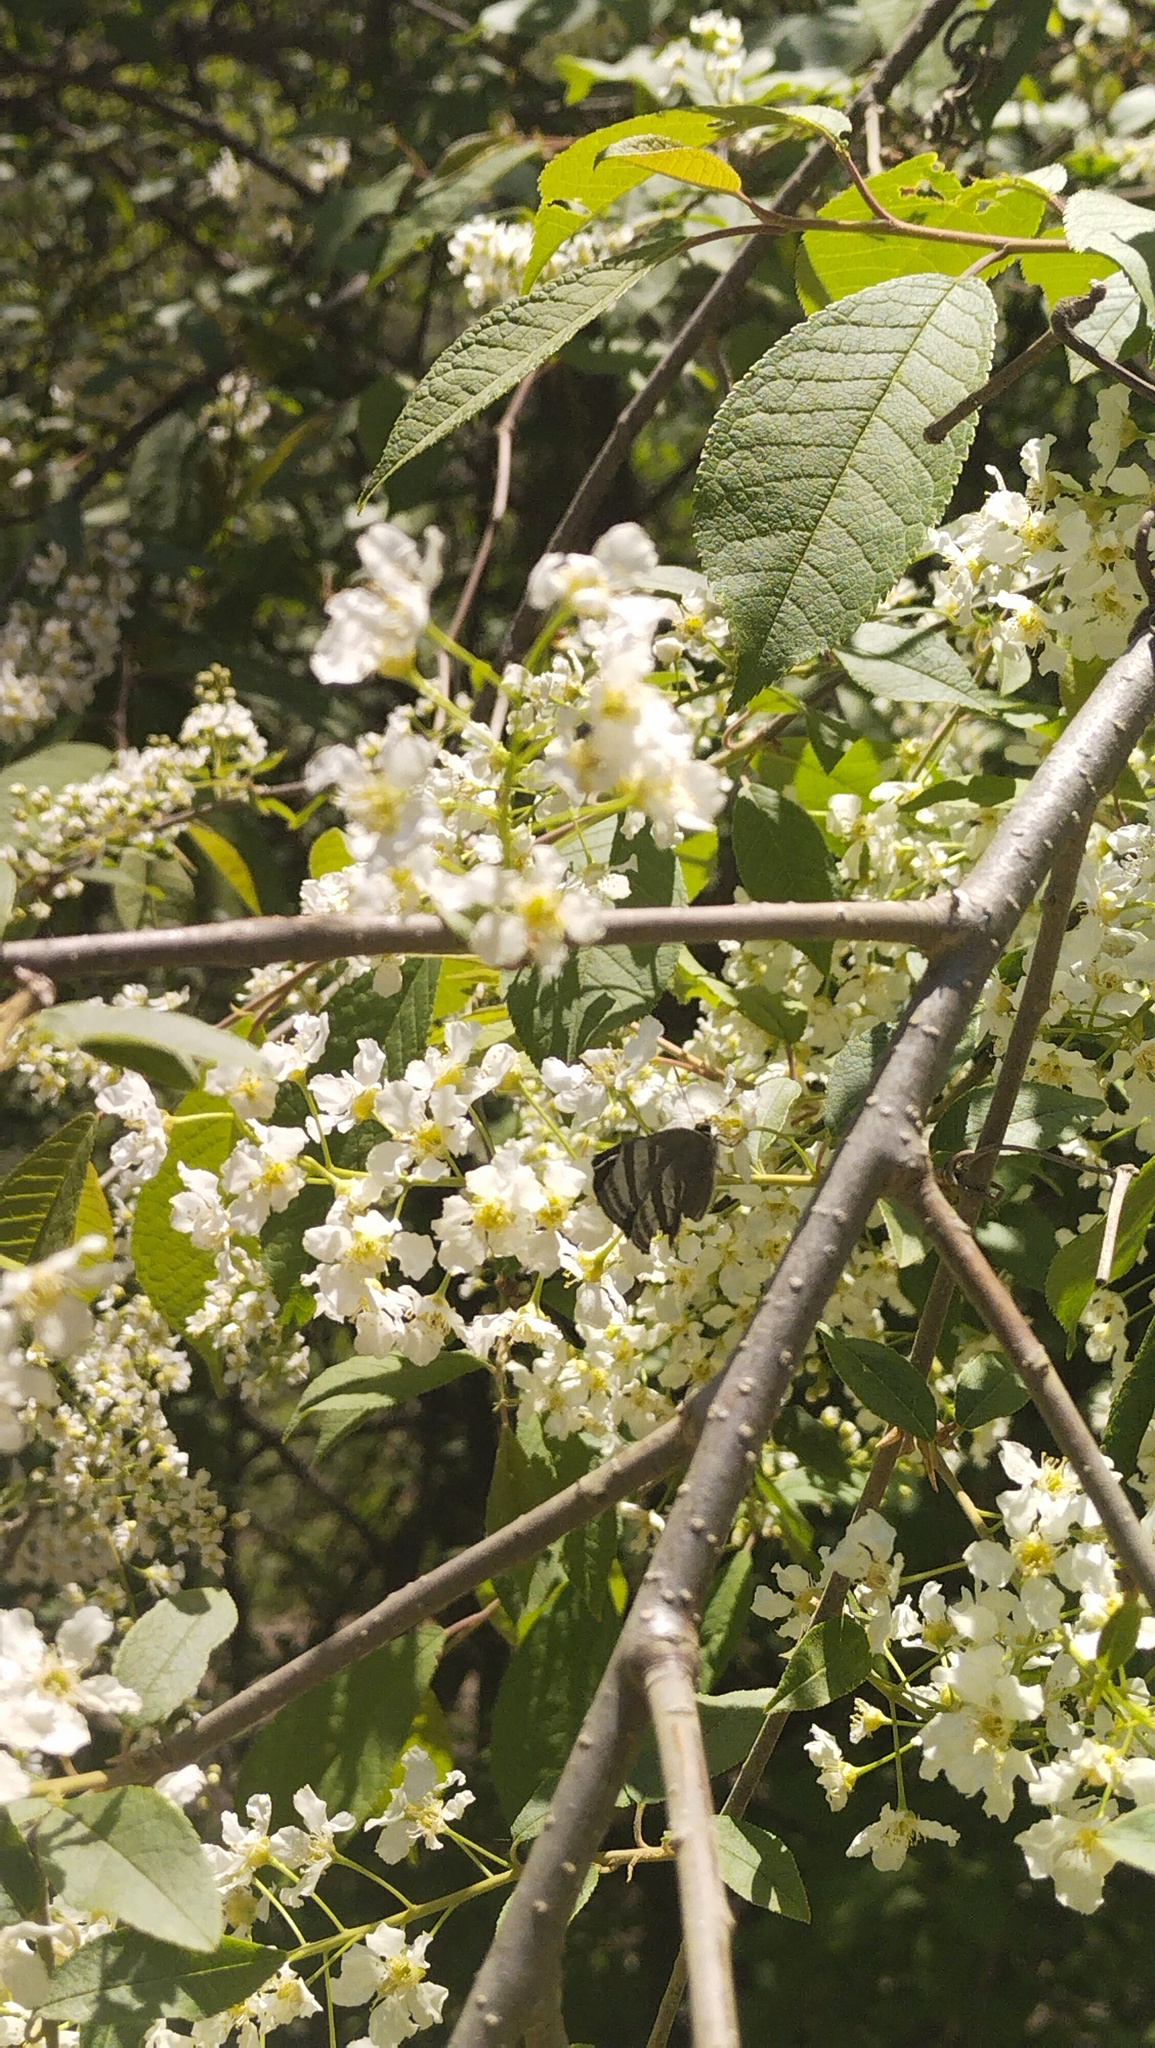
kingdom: Plantae
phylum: Tracheophyta
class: Magnoliopsida
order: Rosales
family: Rosaceae
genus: Prunus
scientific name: Prunus padus
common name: Bird cherry
